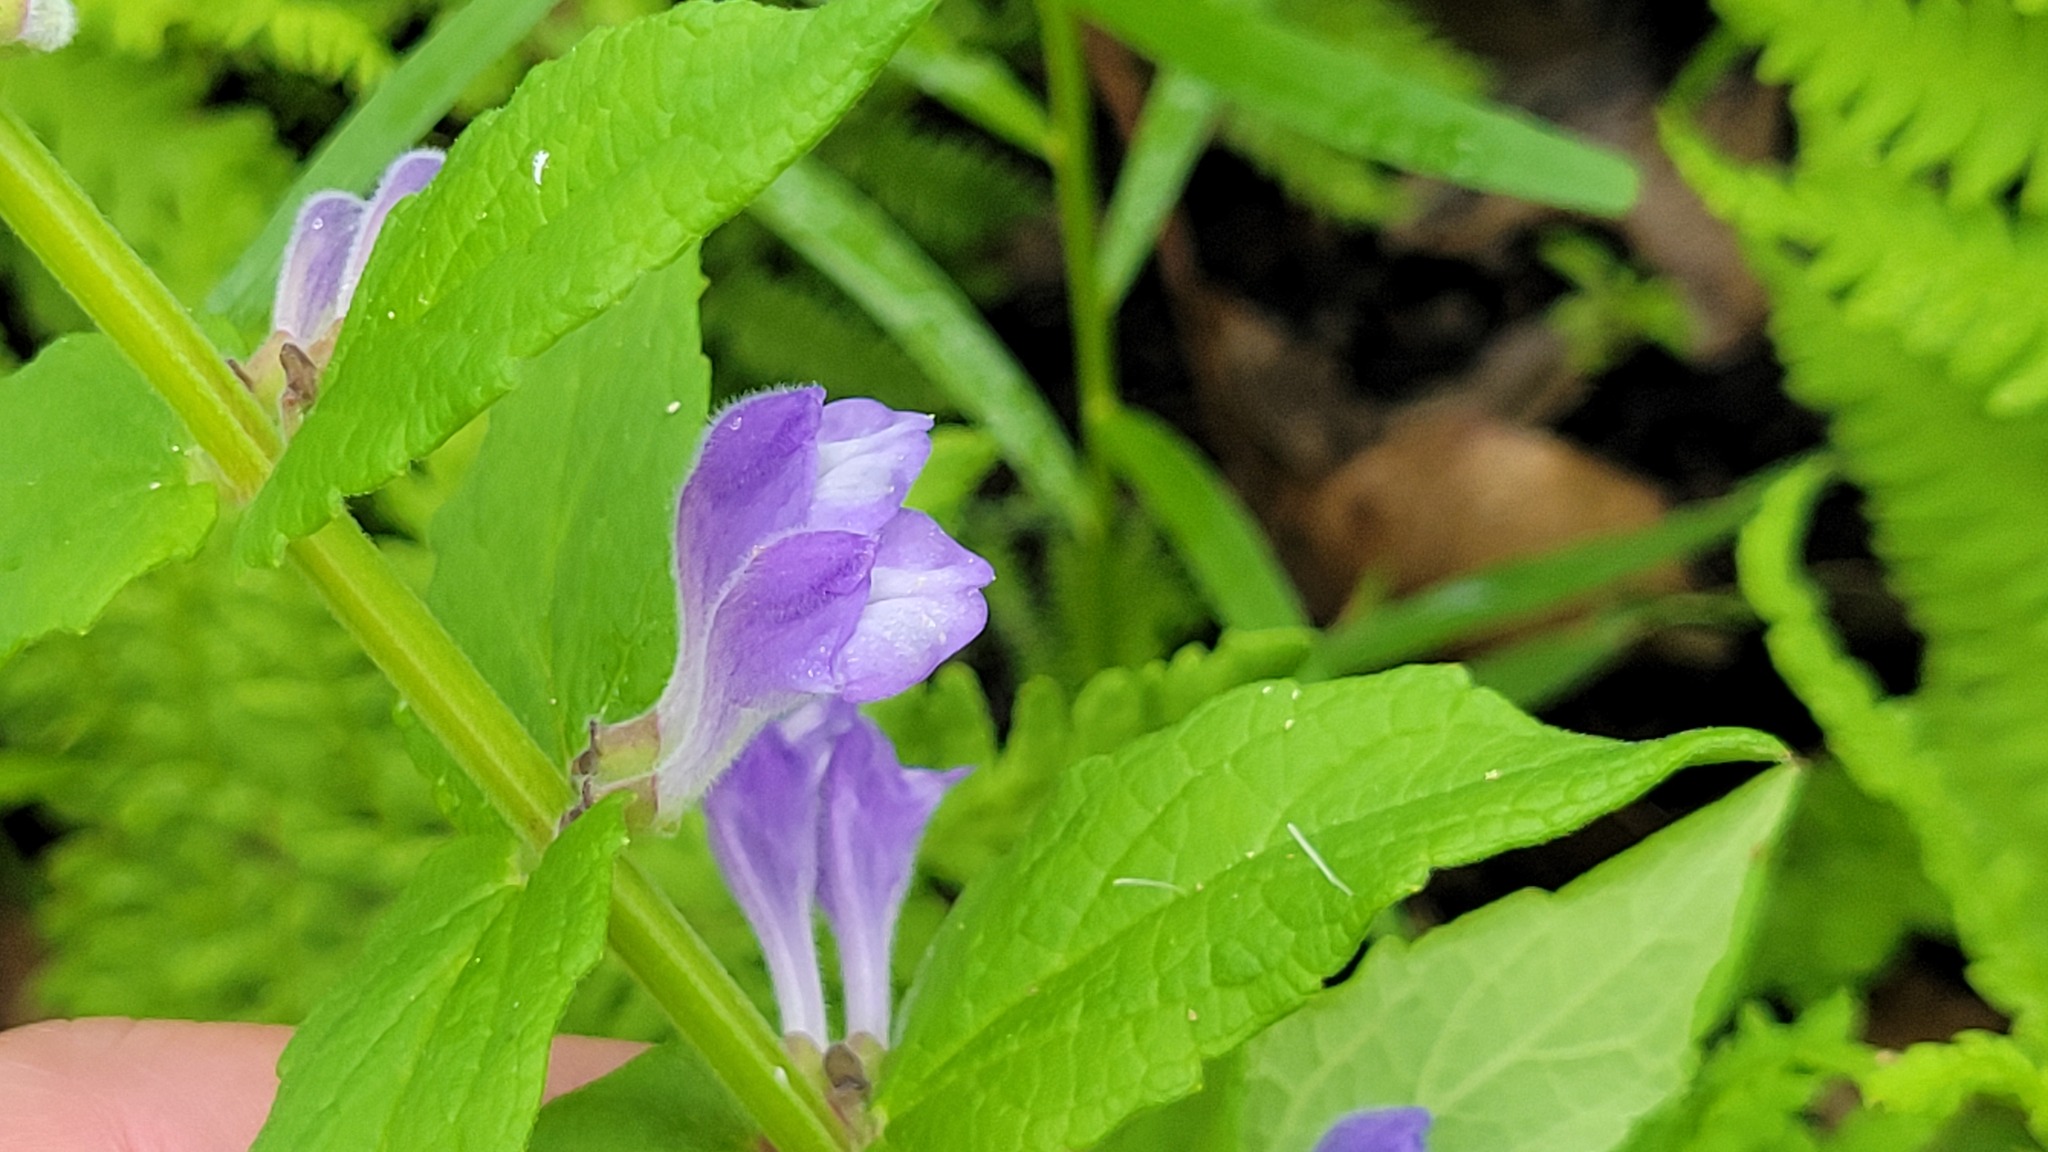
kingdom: Plantae
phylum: Tracheophyta
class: Magnoliopsida
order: Lamiales
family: Lamiaceae
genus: Scutellaria
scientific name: Scutellaria galericulata
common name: Skullcap
